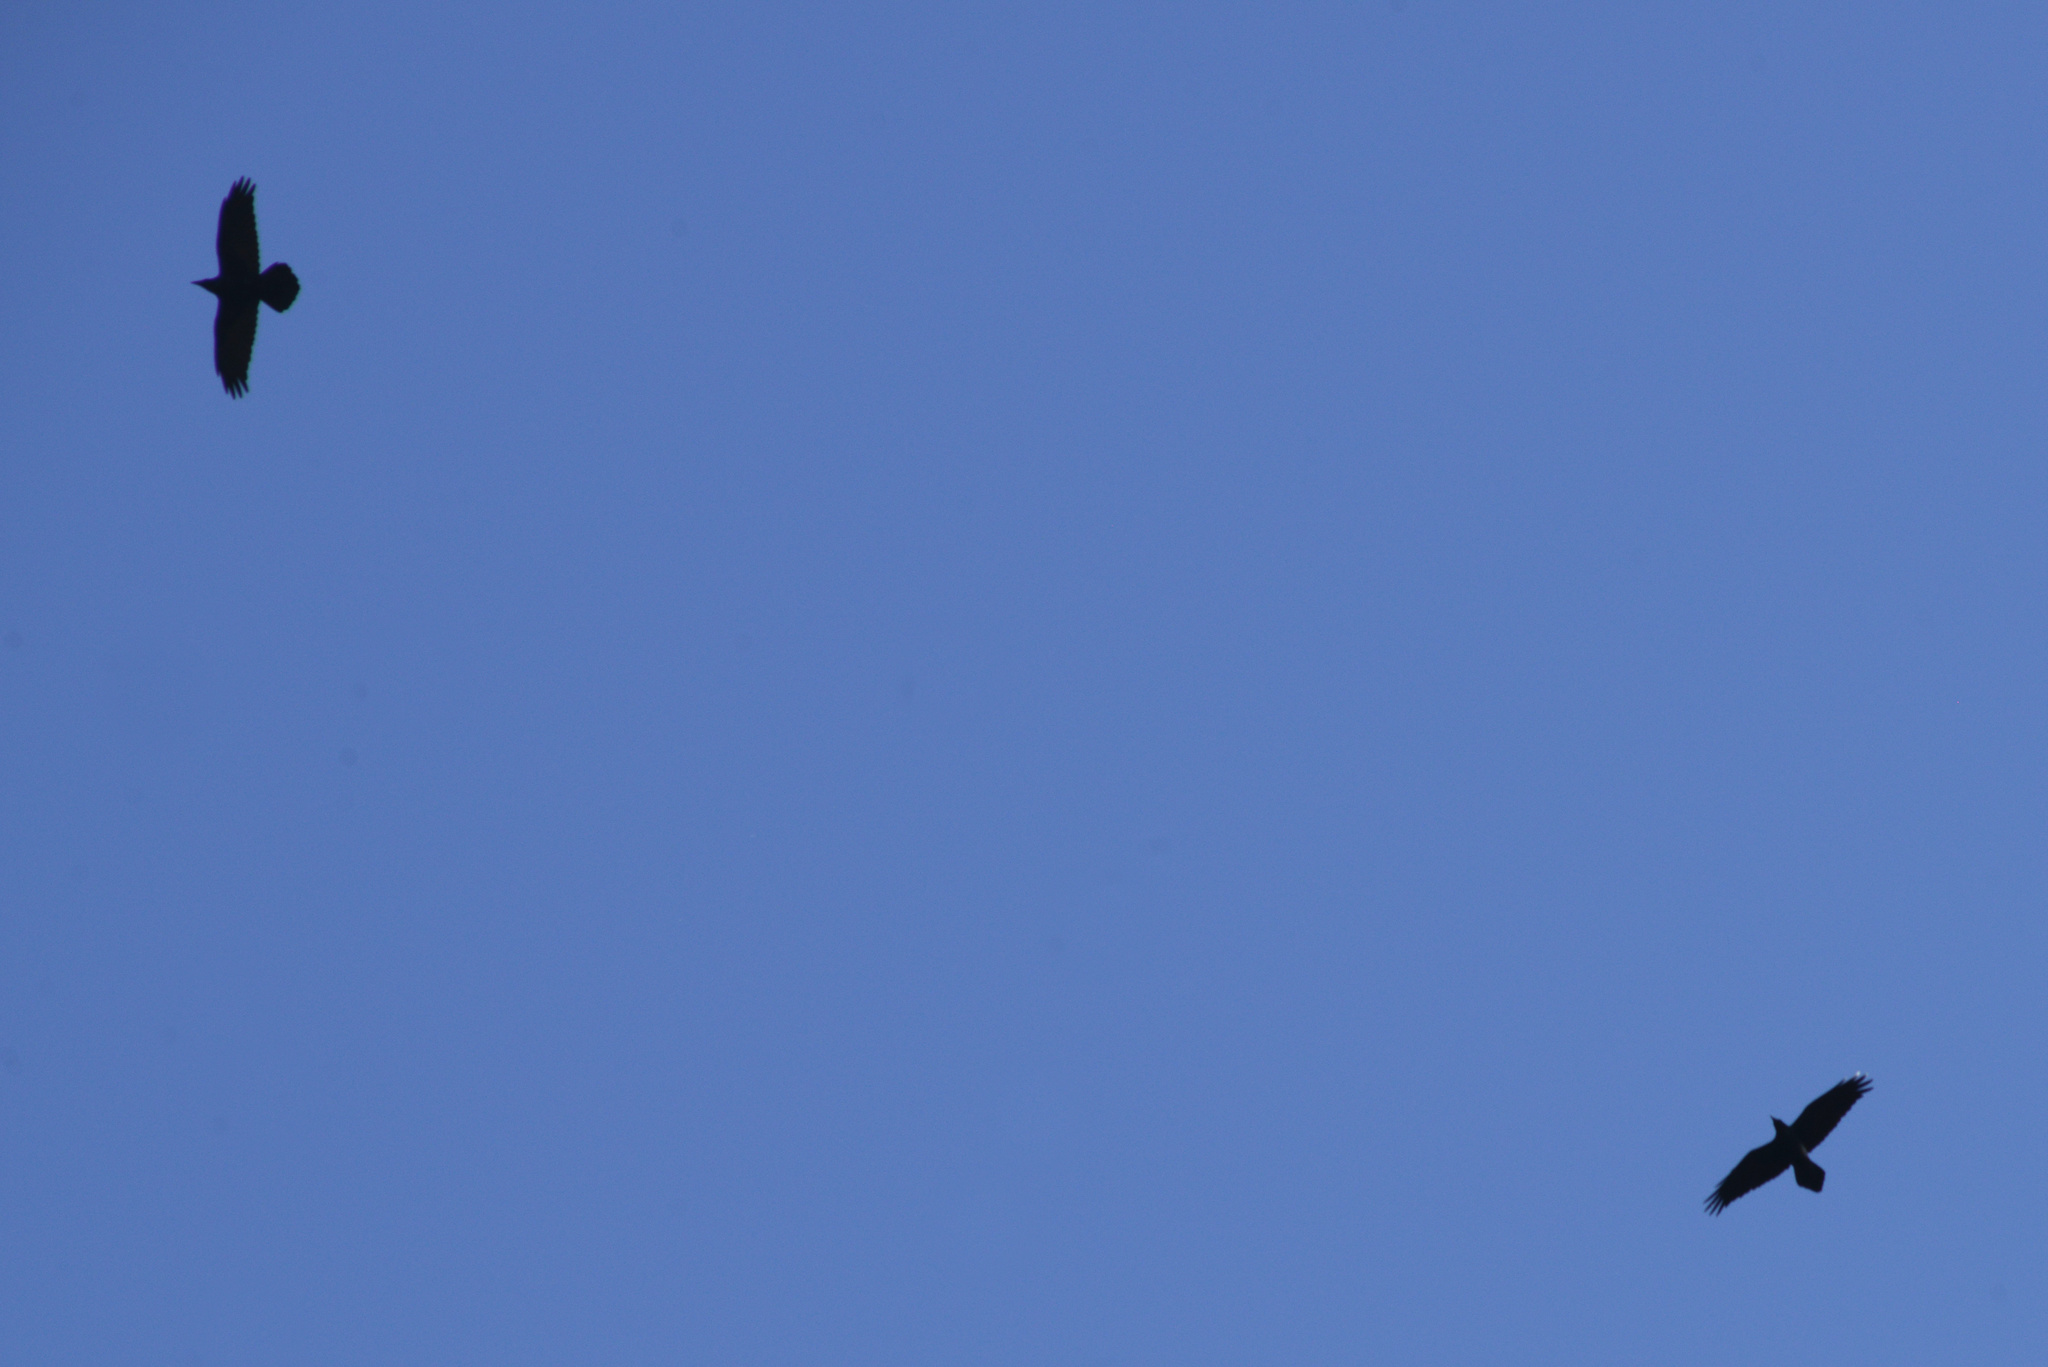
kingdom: Animalia
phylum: Chordata
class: Aves
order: Passeriformes
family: Corvidae
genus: Corvus
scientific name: Corvus corax
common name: Common raven
